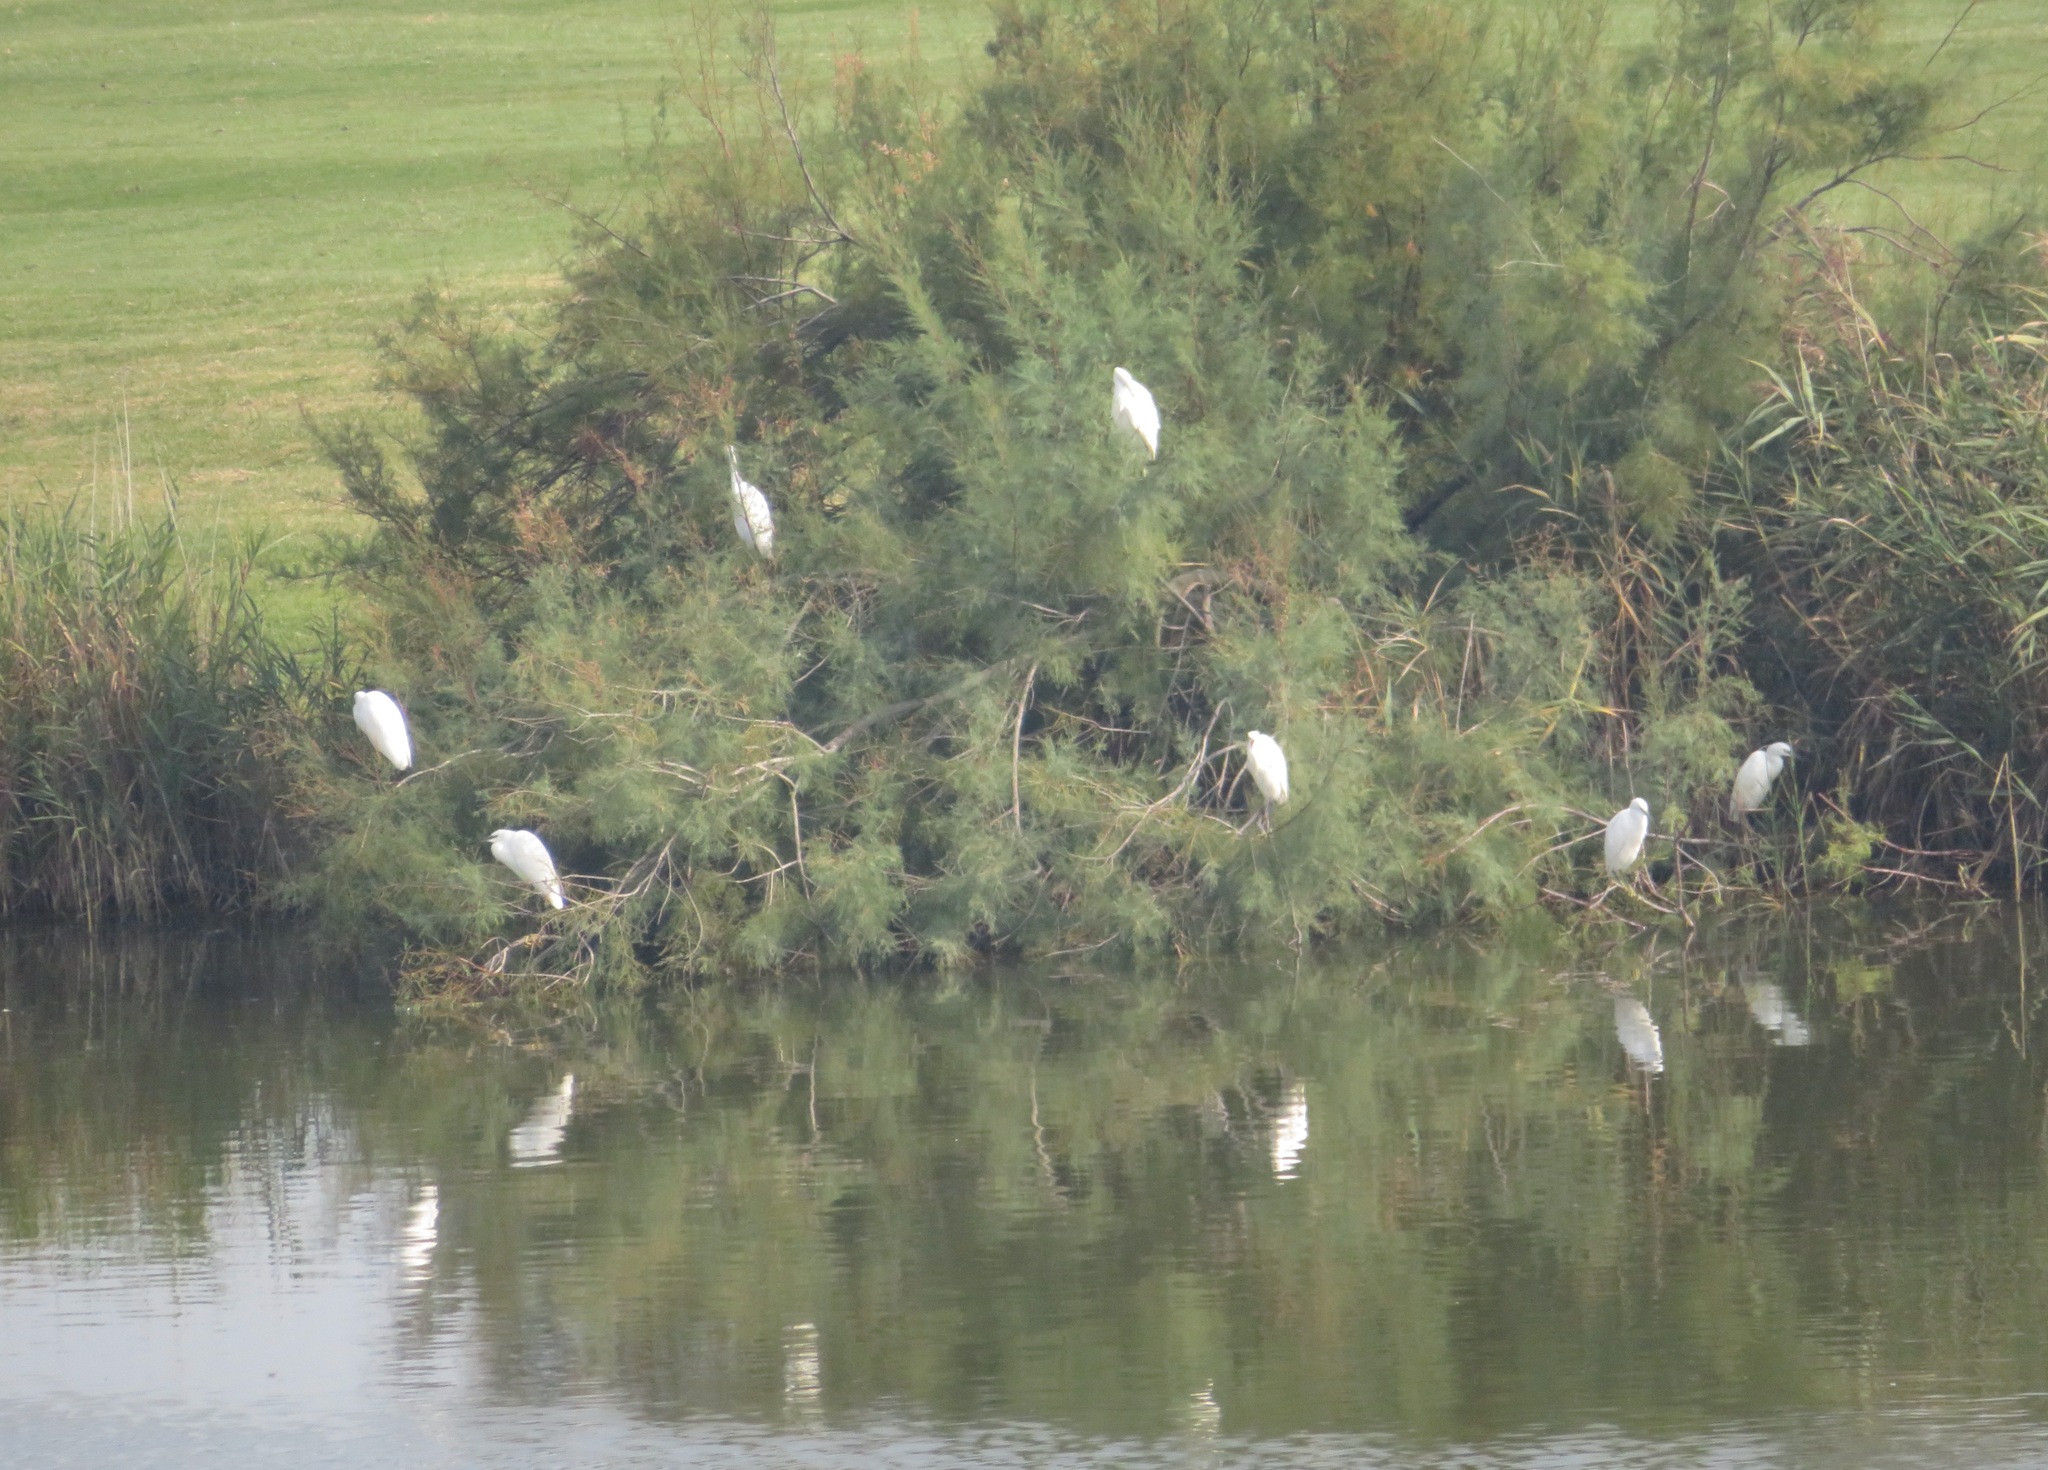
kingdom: Animalia
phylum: Chordata
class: Aves
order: Pelecaniformes
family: Ardeidae
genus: Egretta
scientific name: Egretta garzetta
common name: Little egret
